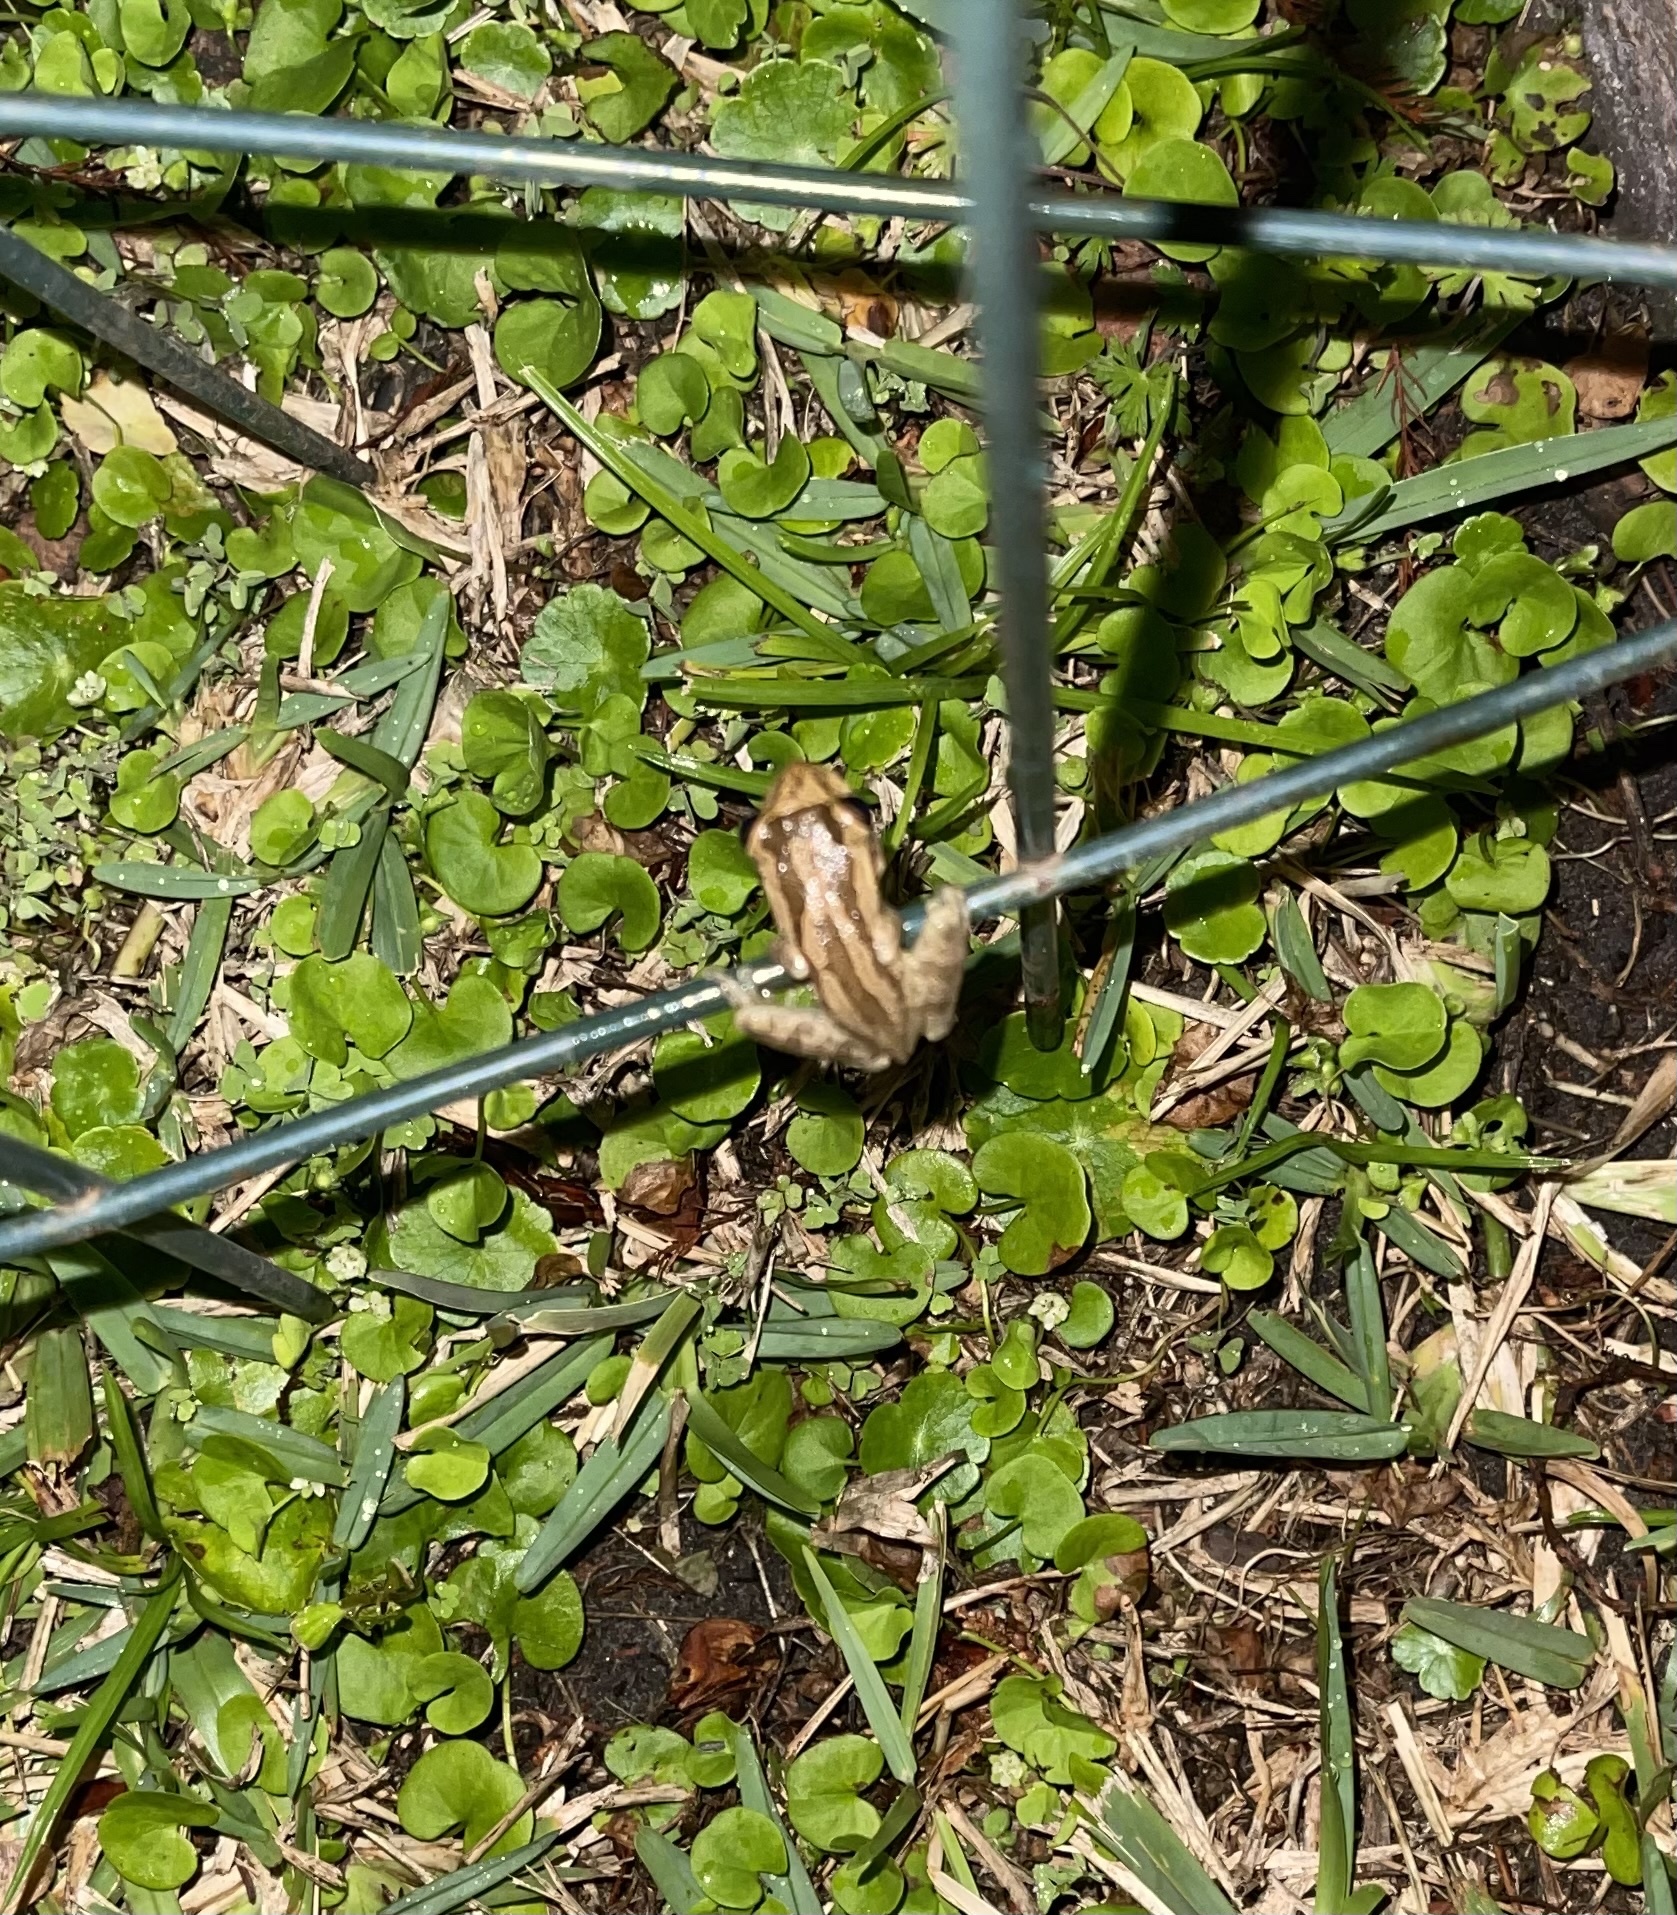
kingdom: Animalia
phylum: Chordata
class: Amphibia
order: Anura
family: Hylidae
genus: Osteopilus
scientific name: Osteopilus septentrionalis
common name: Cuban treefrog
